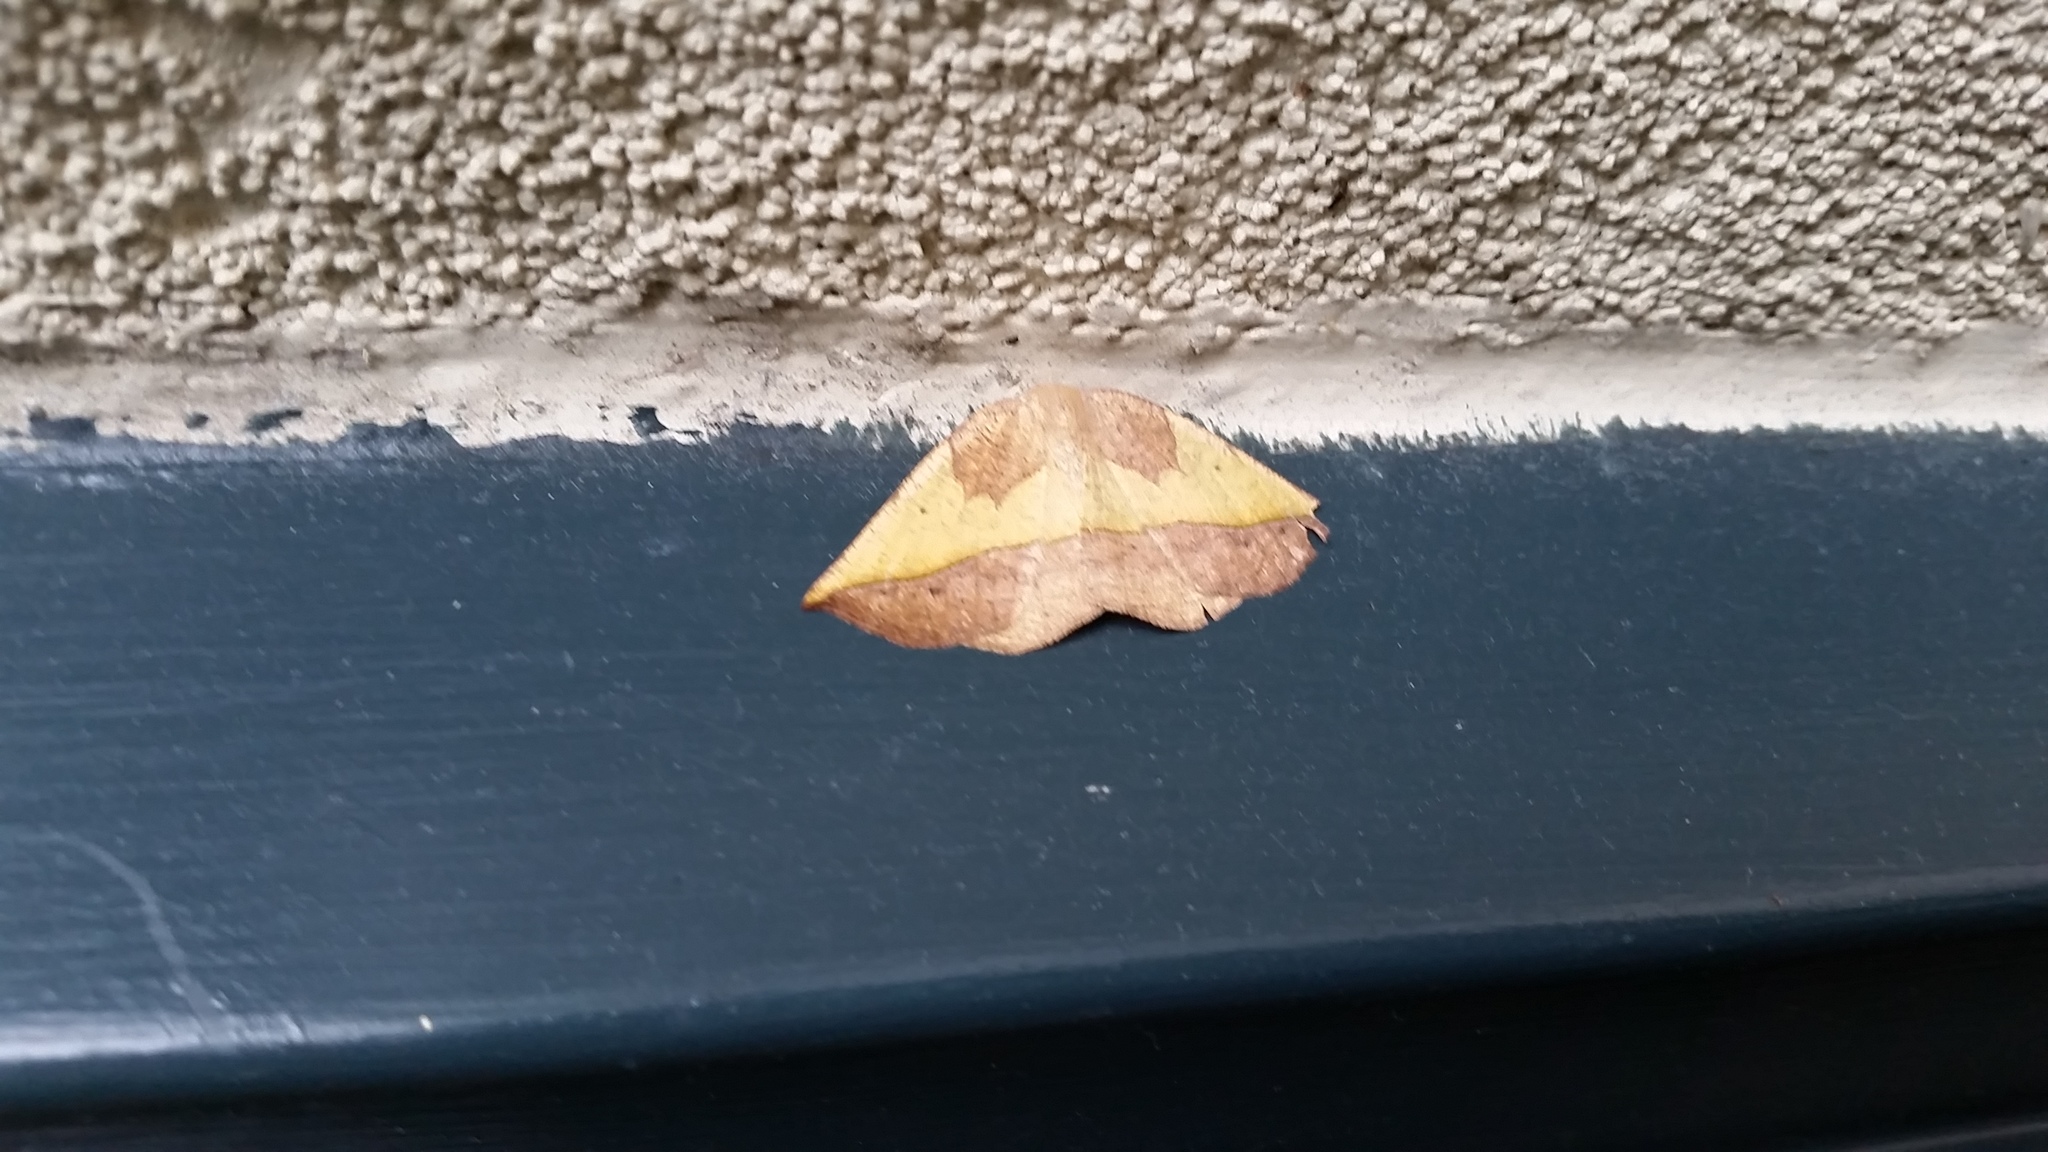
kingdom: Animalia
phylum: Arthropoda
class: Insecta
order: Lepidoptera
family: Geometridae
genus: Eusarca
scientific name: Eusarca fundaria
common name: Dark-edged eusarca moth
